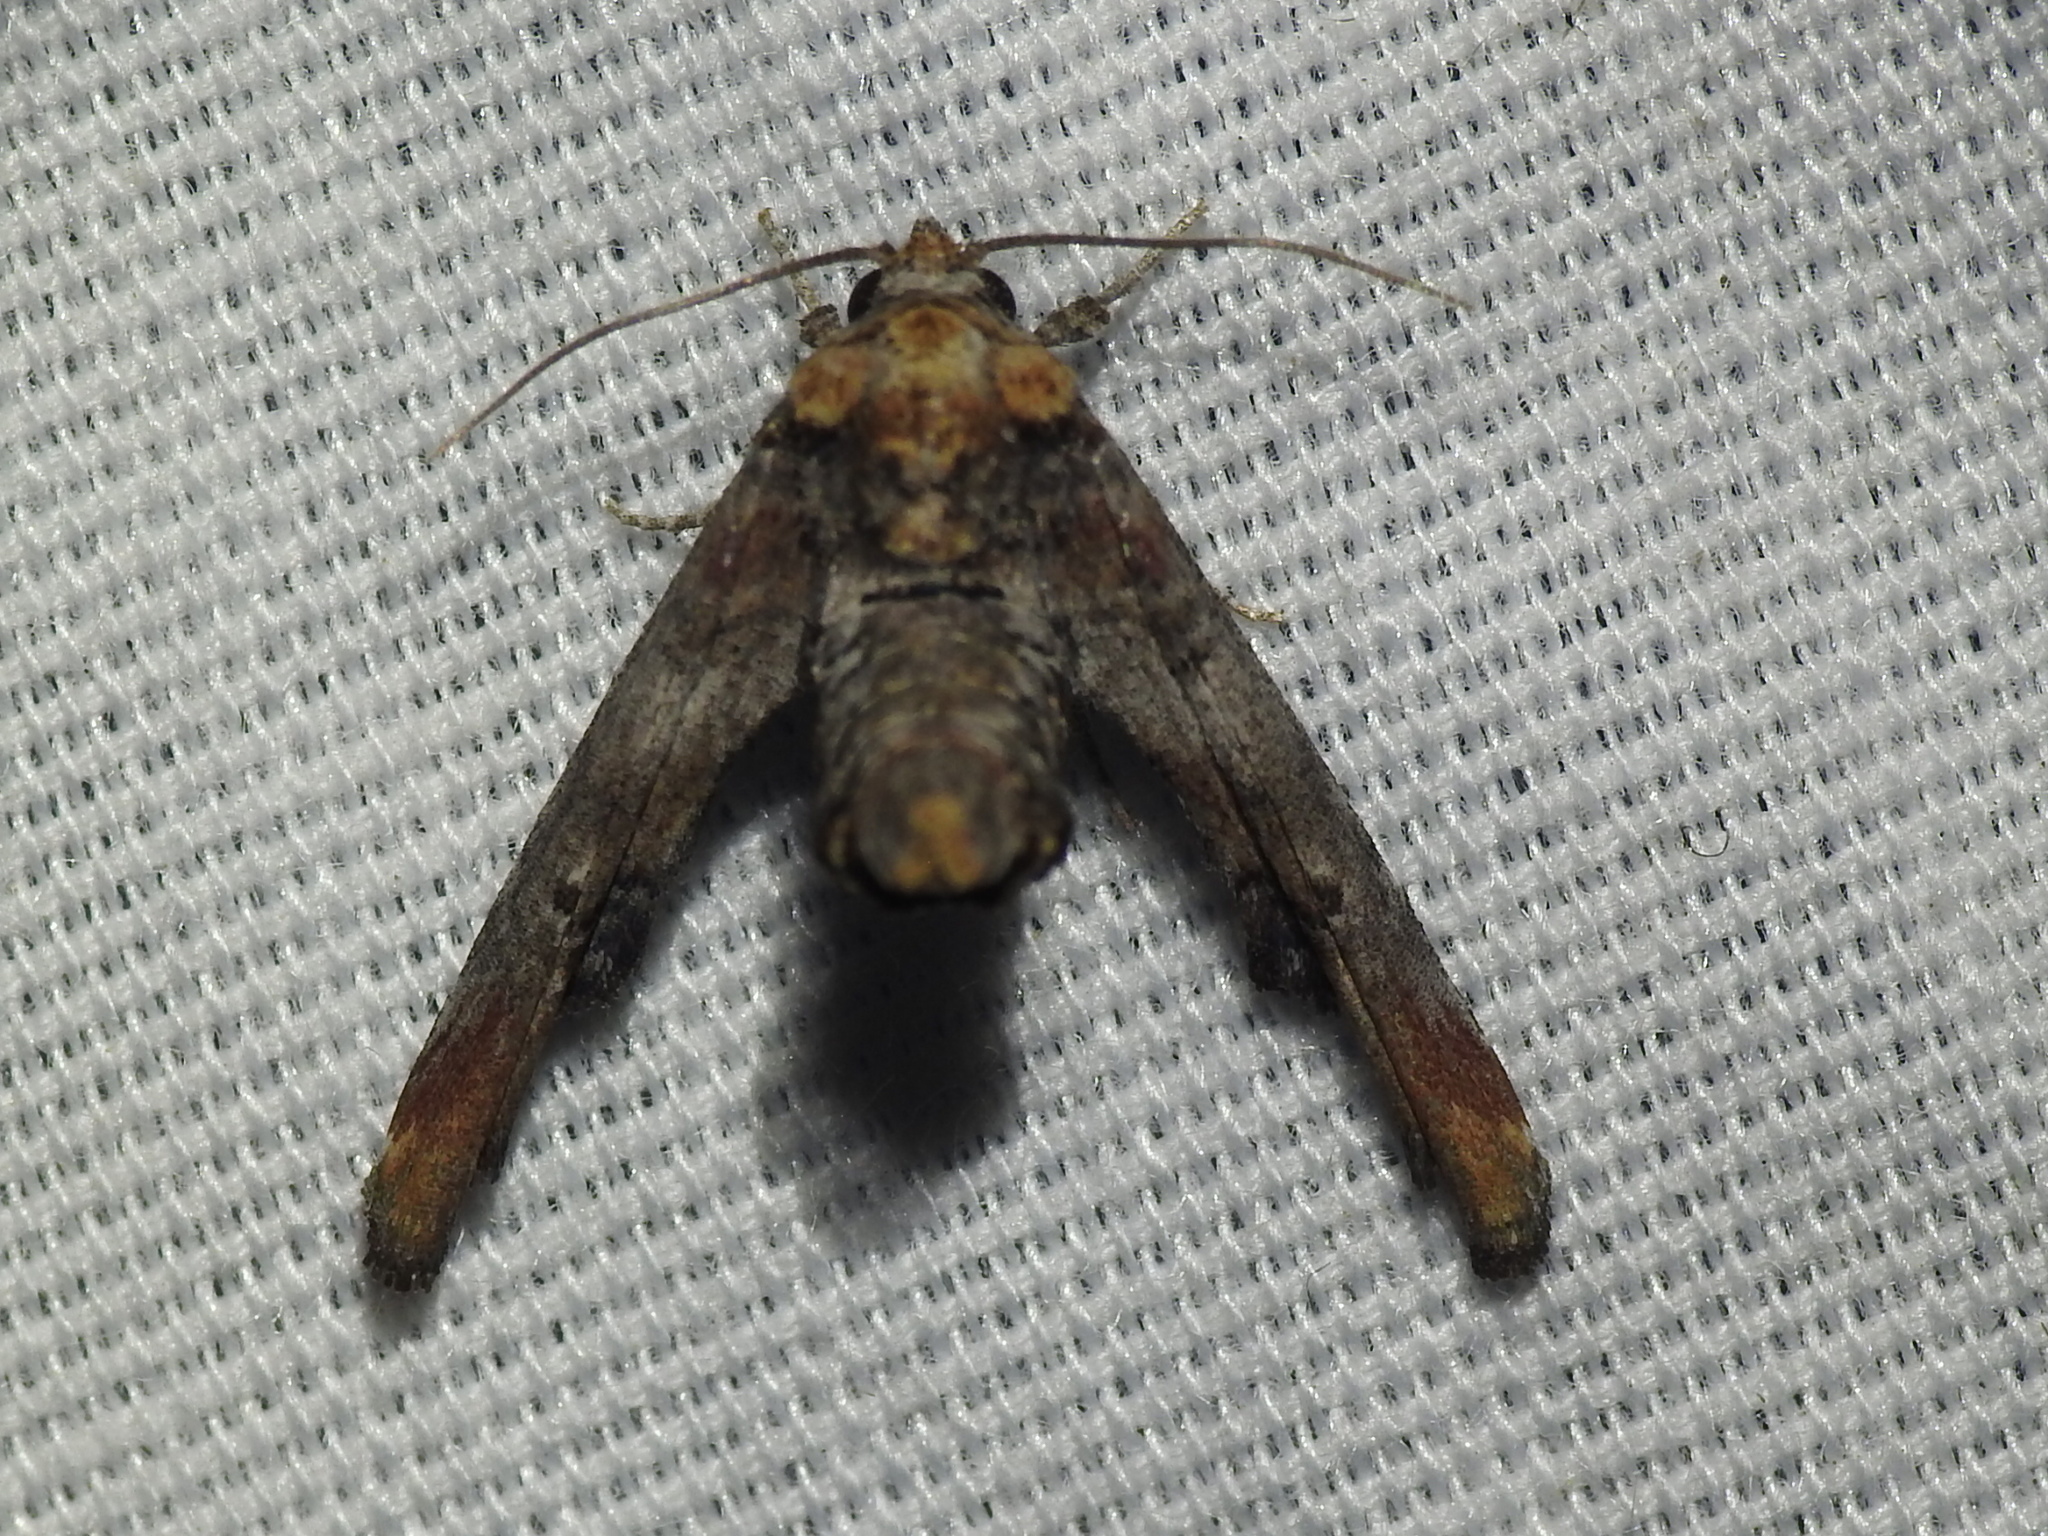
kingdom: Animalia
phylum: Arthropoda
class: Insecta
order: Lepidoptera
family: Euteliidae
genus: Marathyssa
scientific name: Marathyssa inficita
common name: Dark marathyssa moth
